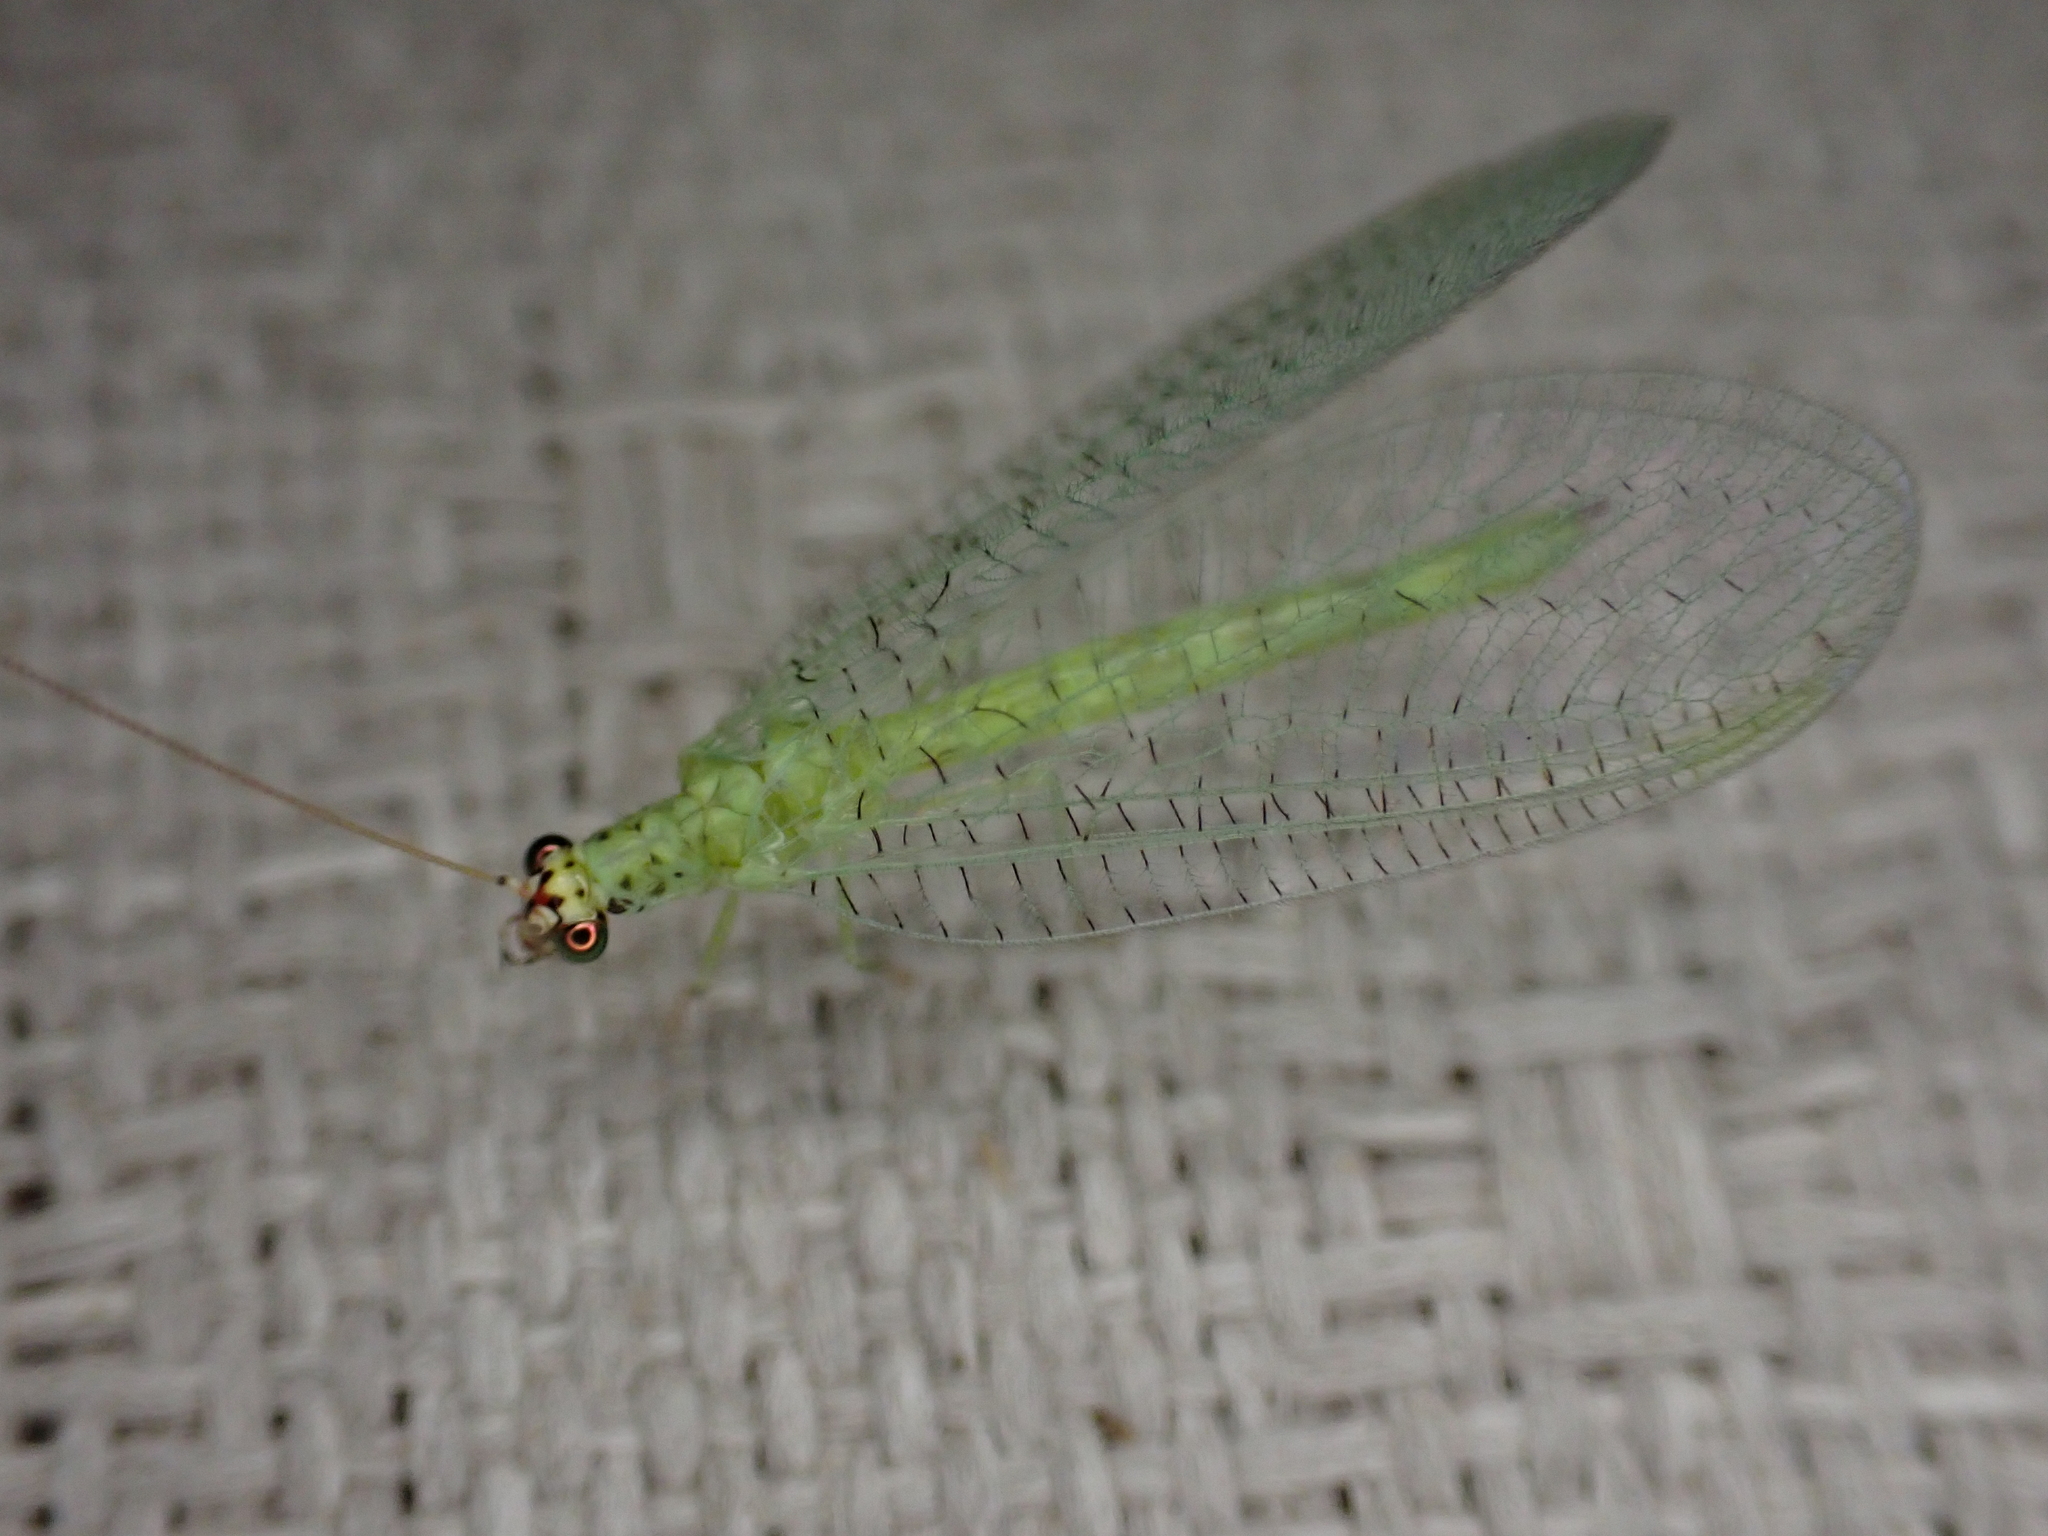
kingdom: Animalia
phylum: Arthropoda
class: Insecta
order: Neuroptera
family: Chrysopidae
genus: Chrysopa
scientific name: Chrysopa oculata
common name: Golden-eyed lacewing
